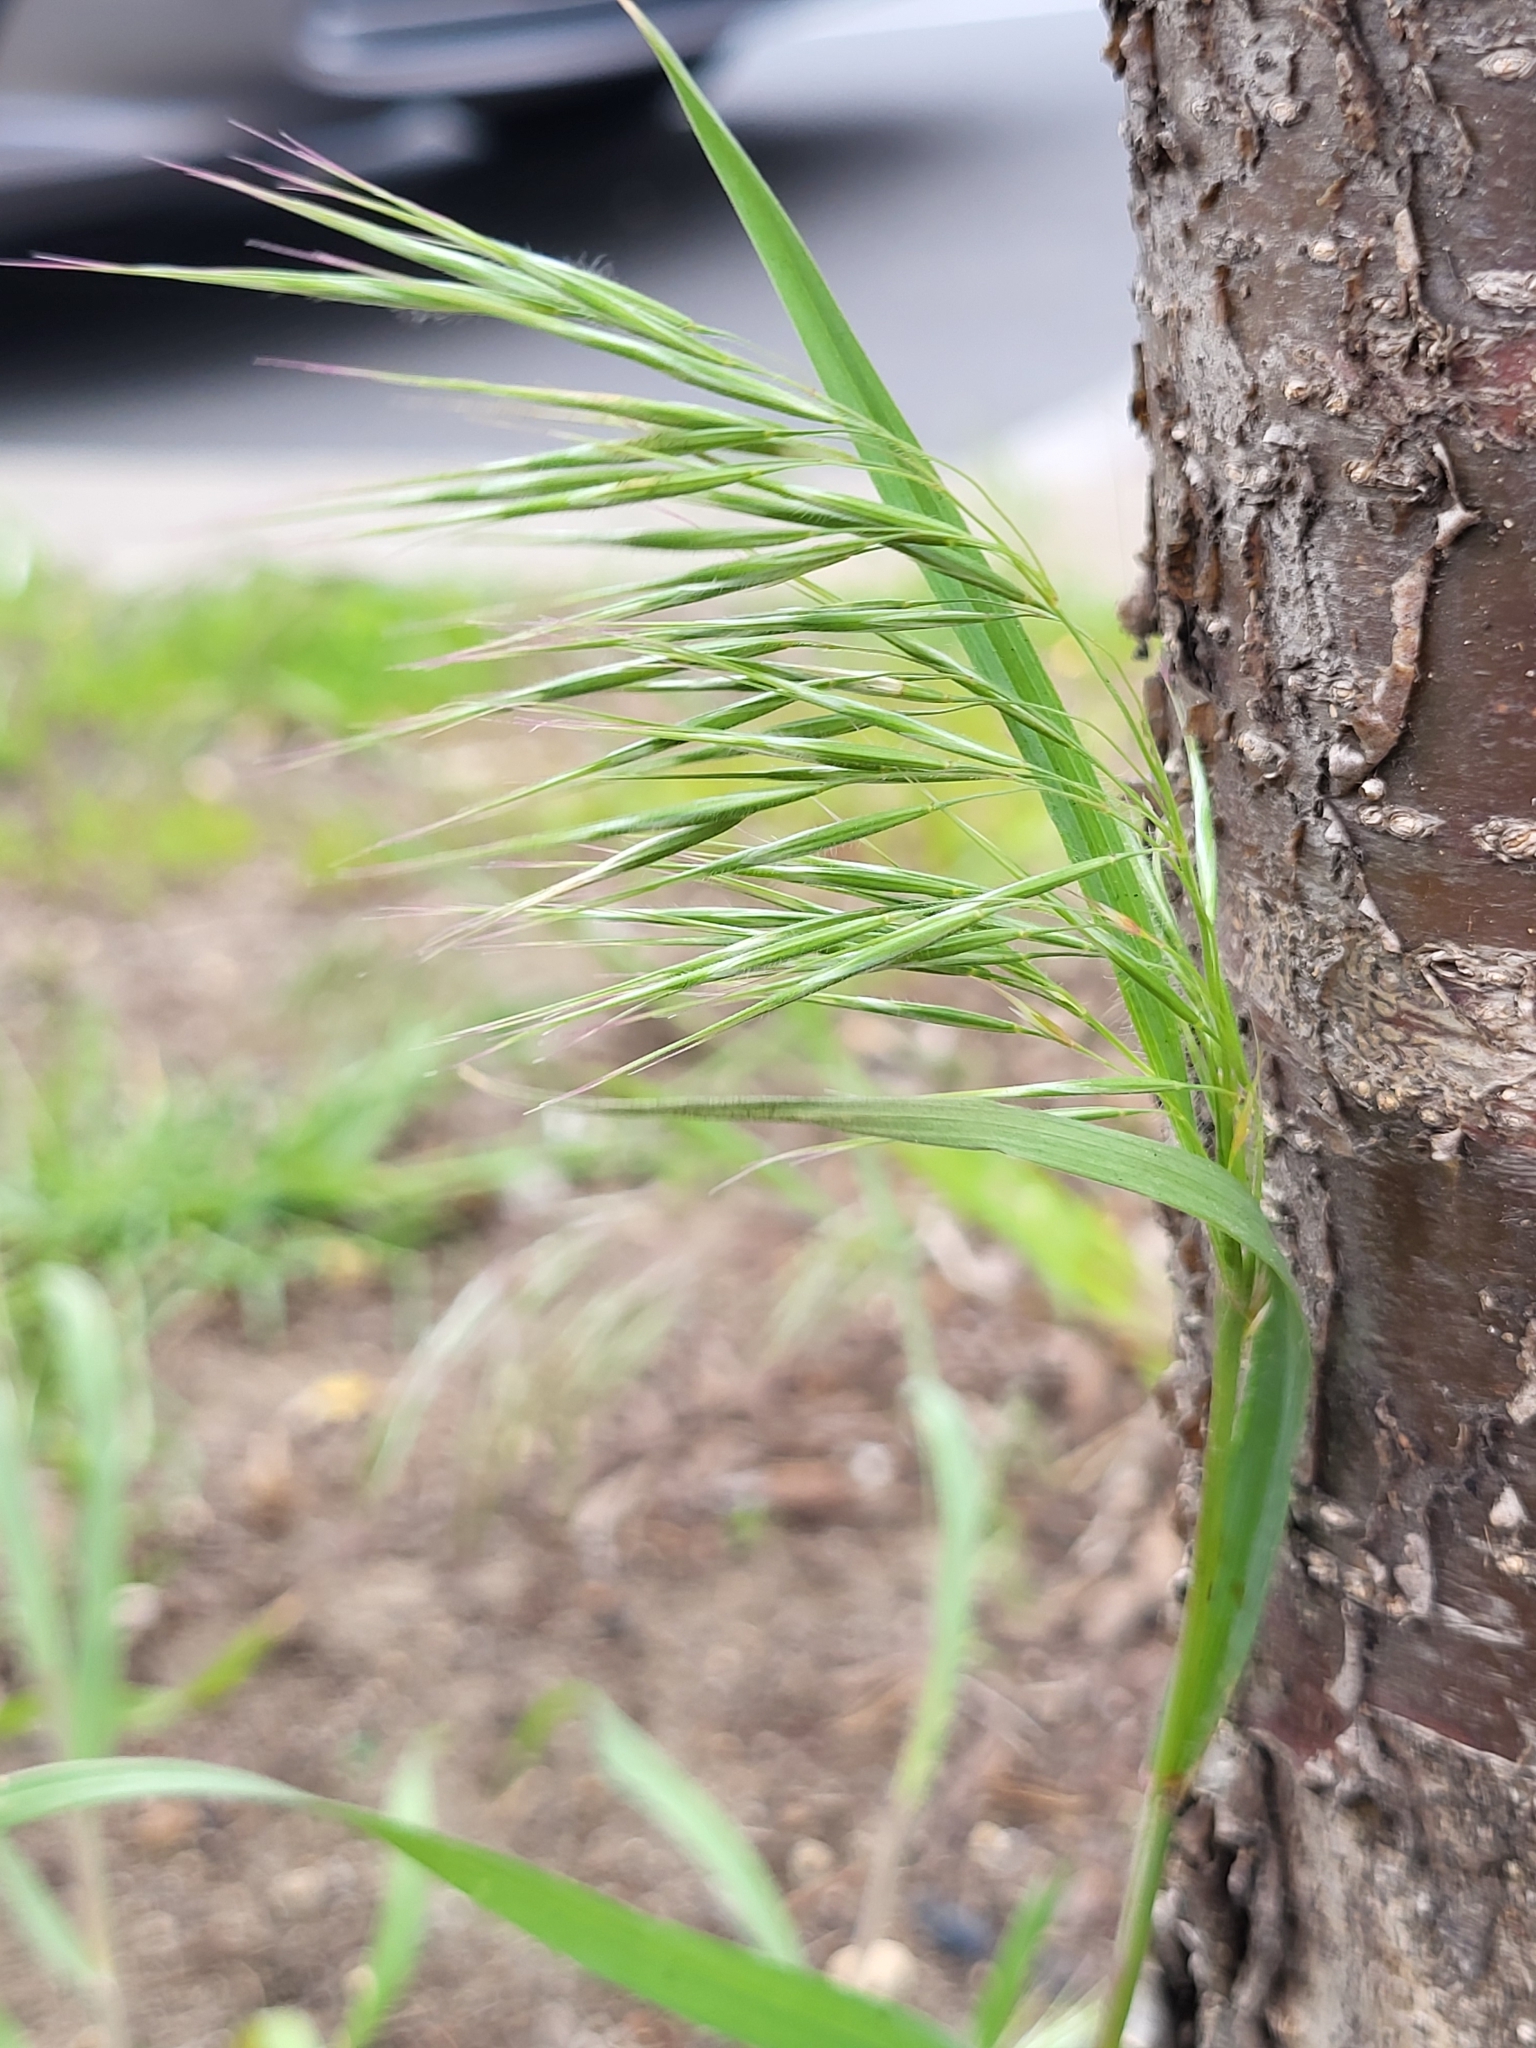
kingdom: Plantae
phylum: Tracheophyta
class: Liliopsida
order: Poales
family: Poaceae
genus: Bromus
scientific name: Bromus tectorum
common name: Cheatgrass
